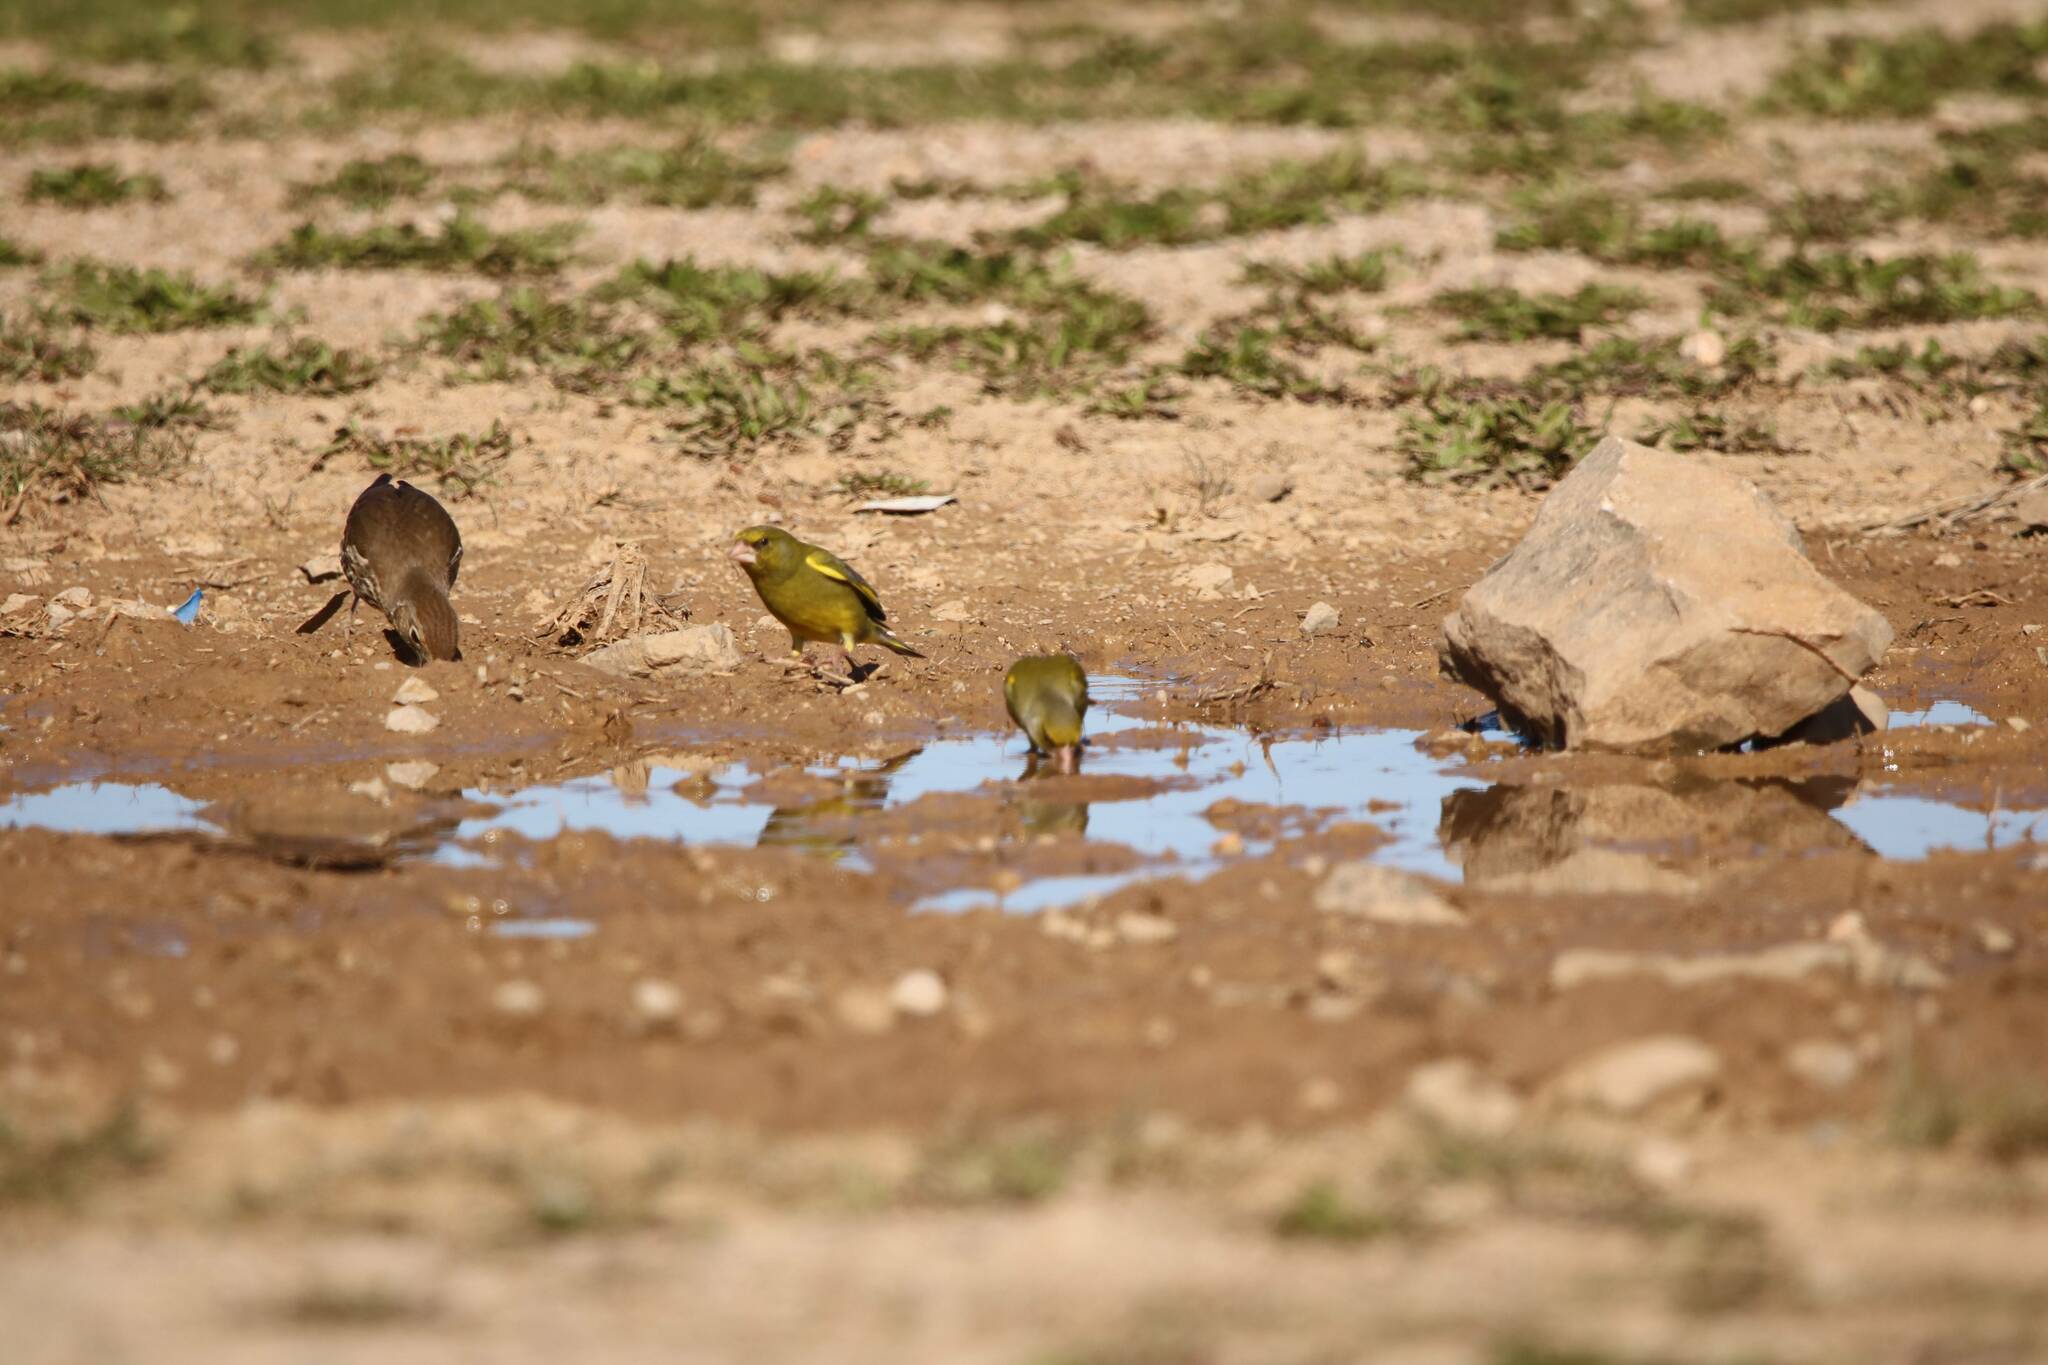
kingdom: Plantae
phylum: Tracheophyta
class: Liliopsida
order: Poales
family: Poaceae
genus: Chloris
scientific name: Chloris chloris
